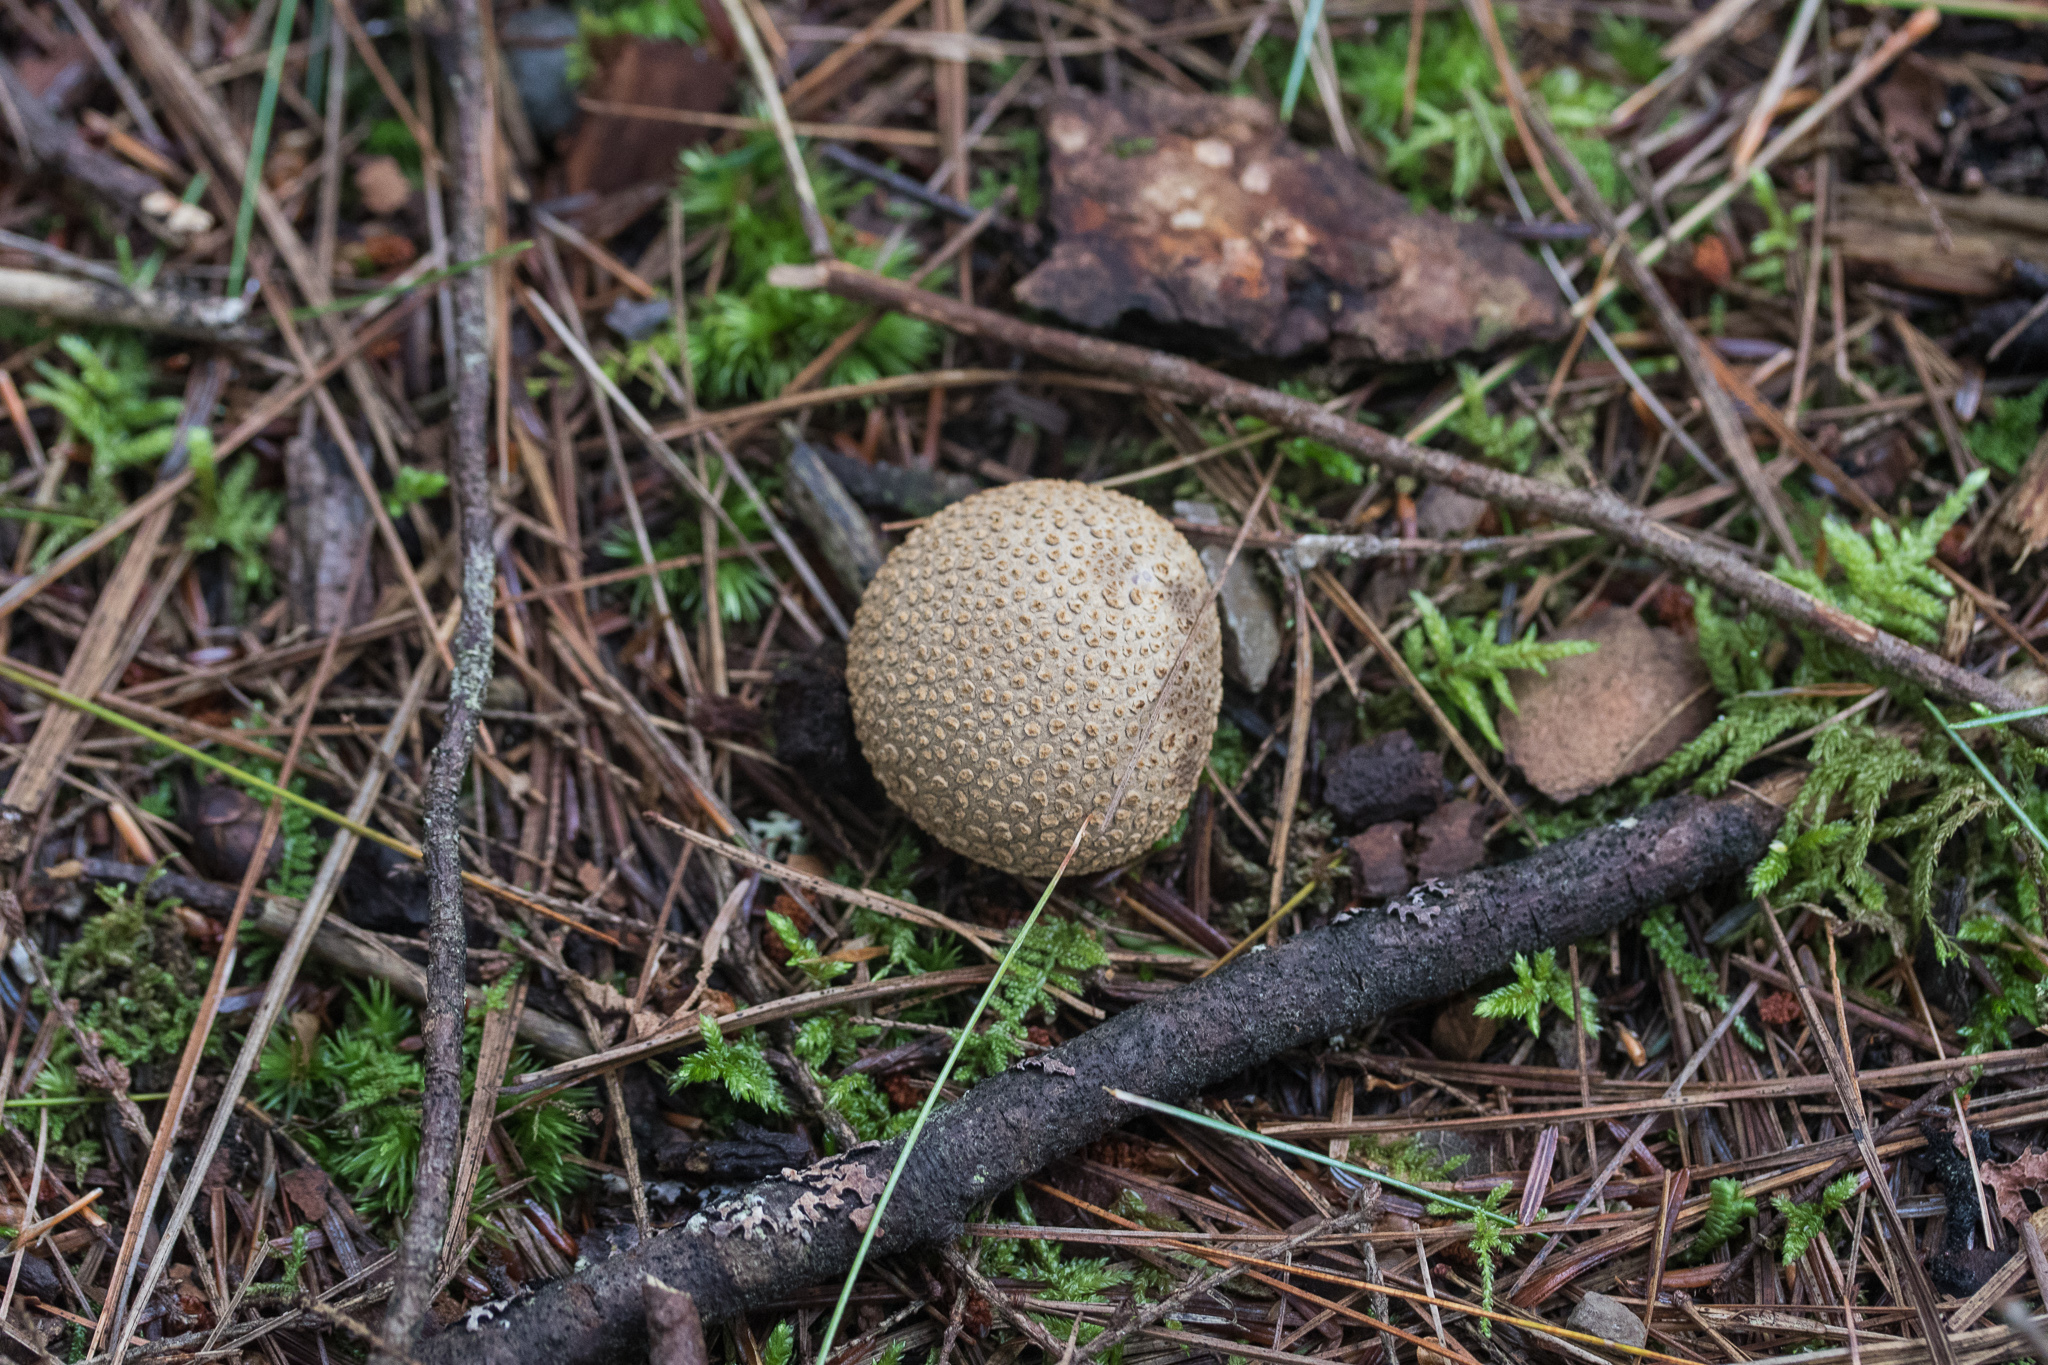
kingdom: Fungi
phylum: Basidiomycota
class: Agaricomycetes
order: Boletales
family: Sclerodermataceae
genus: Scleroderma
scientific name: Scleroderma citrinum
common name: Common earthball
